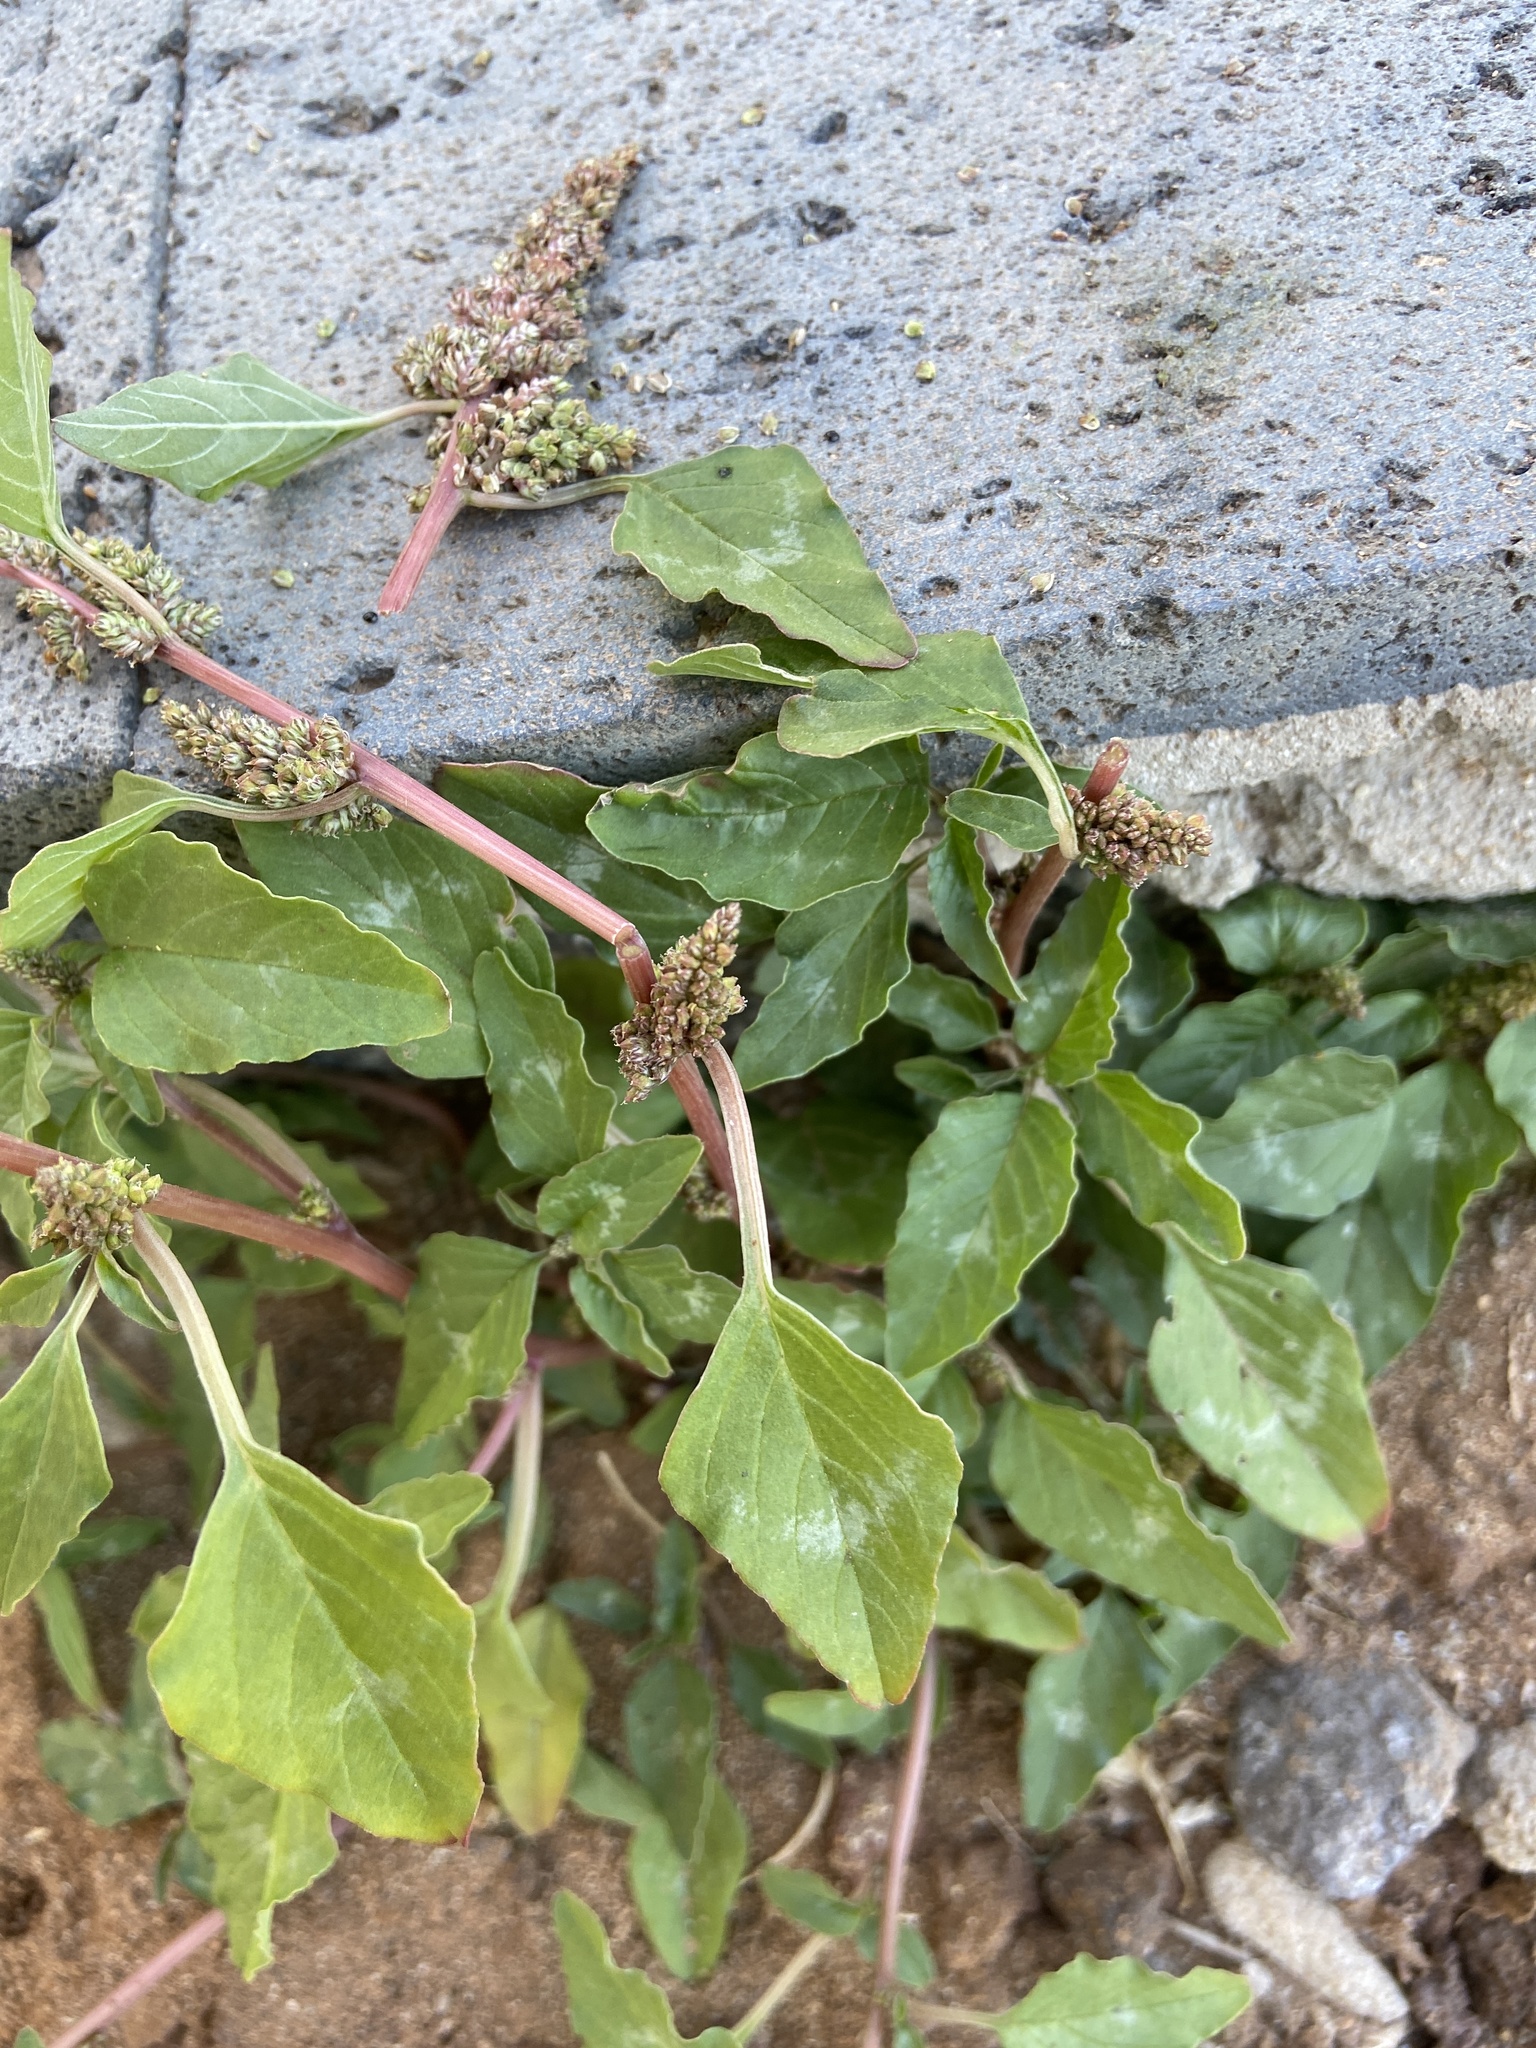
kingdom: Plantae
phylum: Tracheophyta
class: Magnoliopsida
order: Caryophyllales
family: Amaranthaceae
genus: Amaranthus
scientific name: Amaranthus blitum
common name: Purple amaranth
